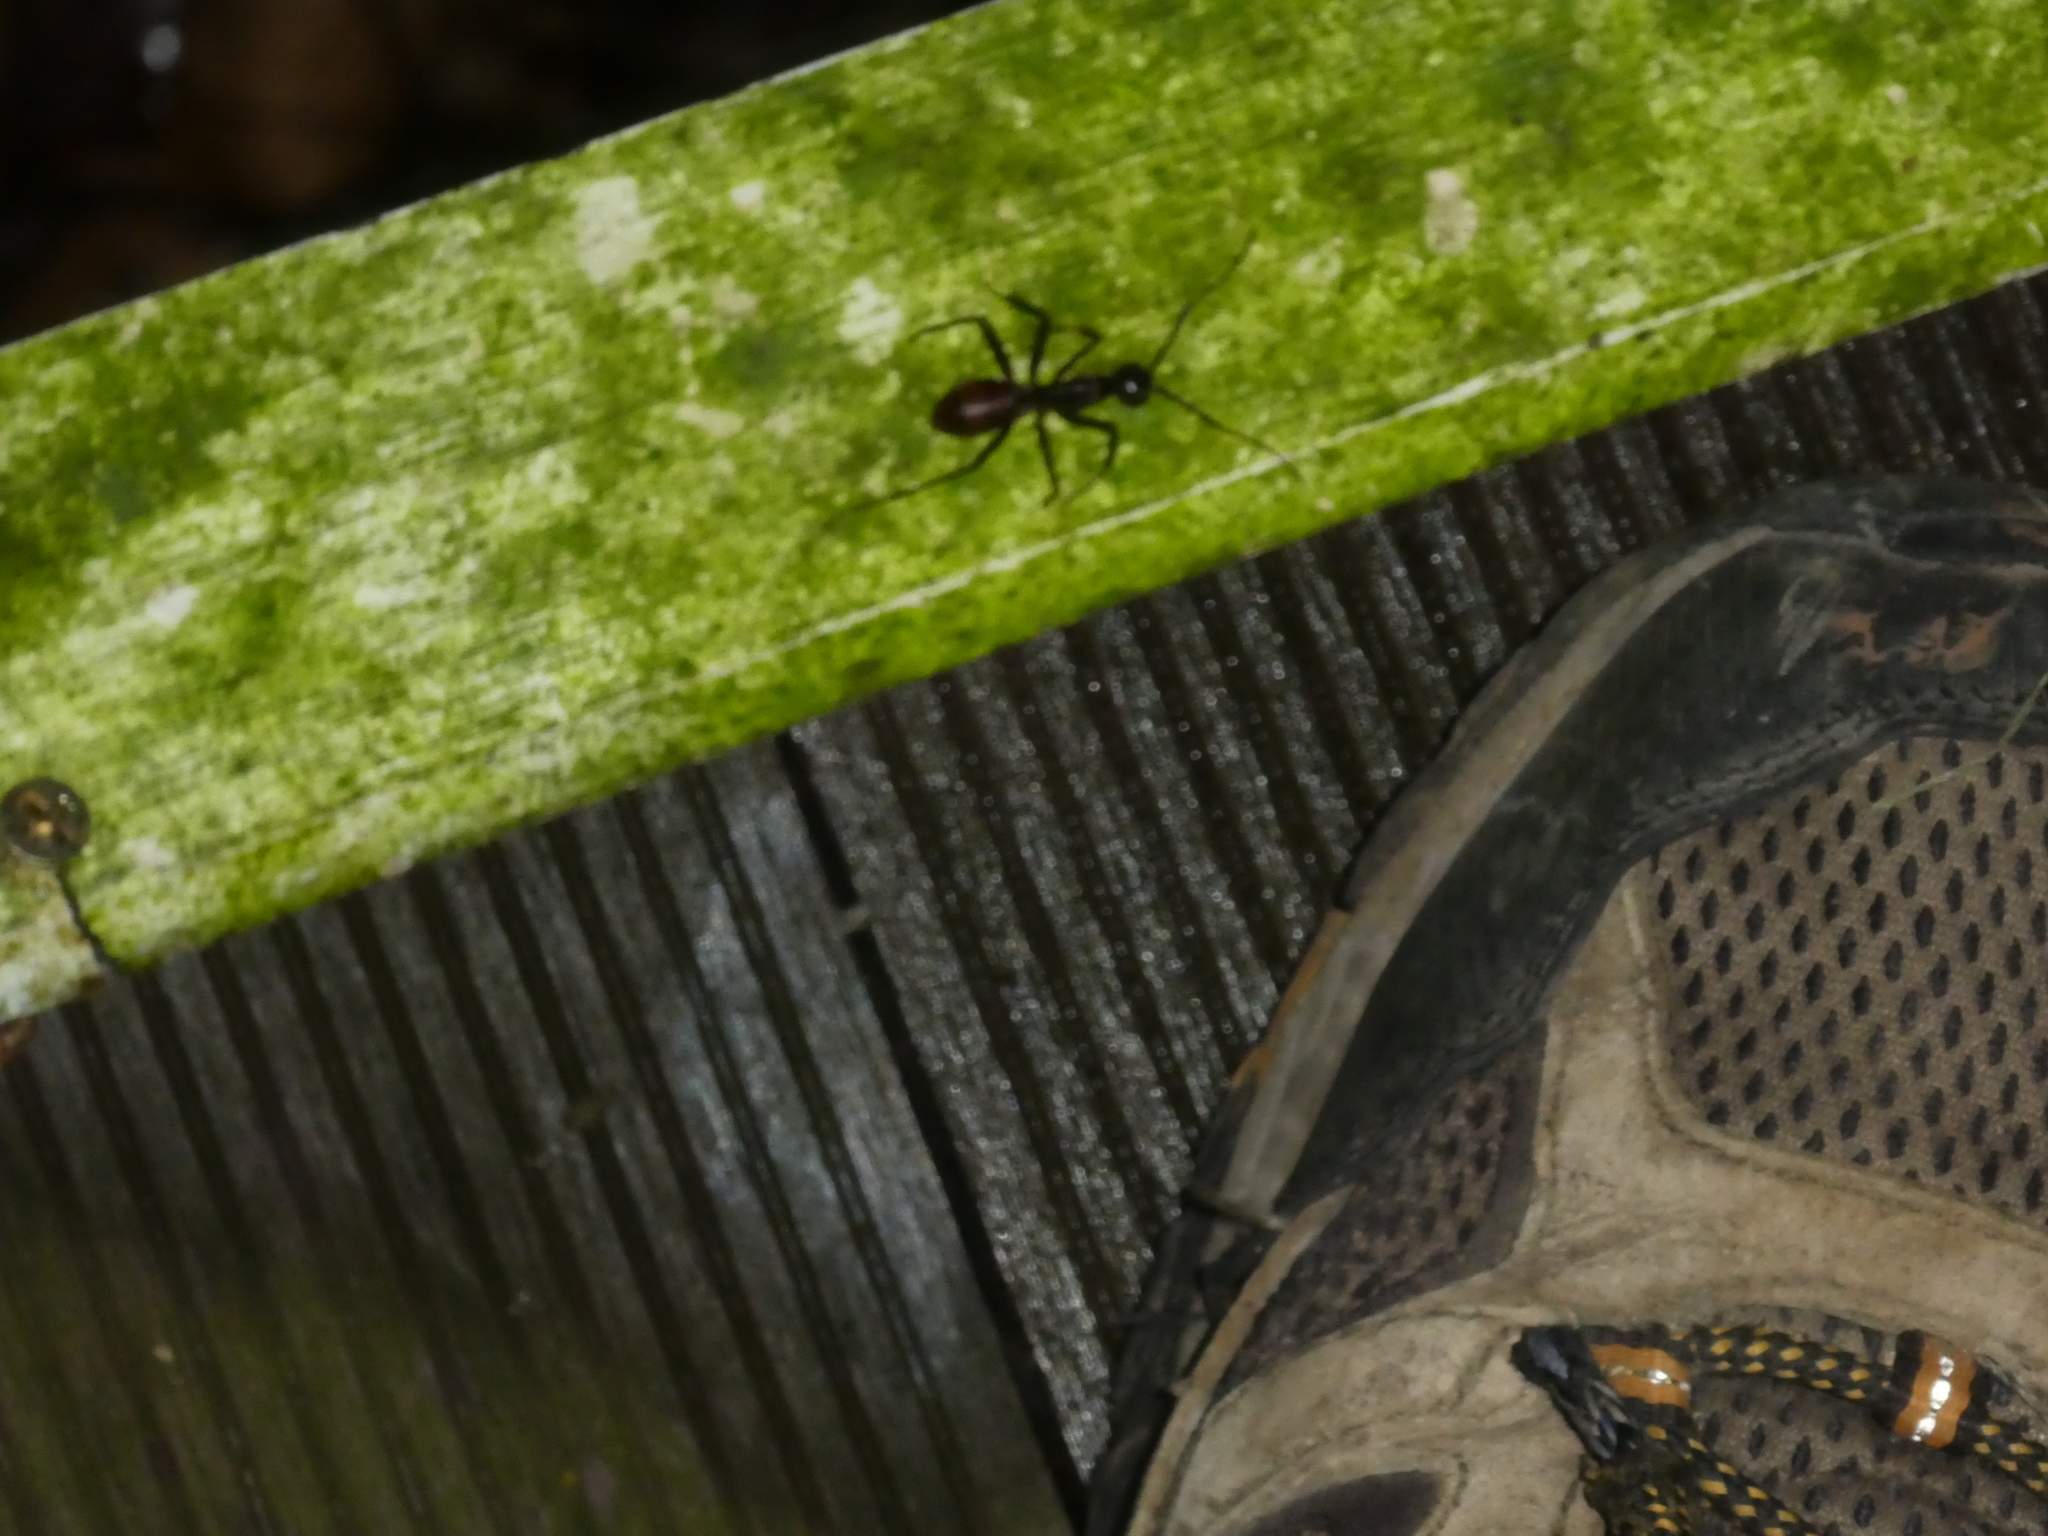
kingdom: Animalia
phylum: Arthropoda
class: Insecta
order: Hymenoptera
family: Formicidae
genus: Dinomyrmex
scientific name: Dinomyrmex
